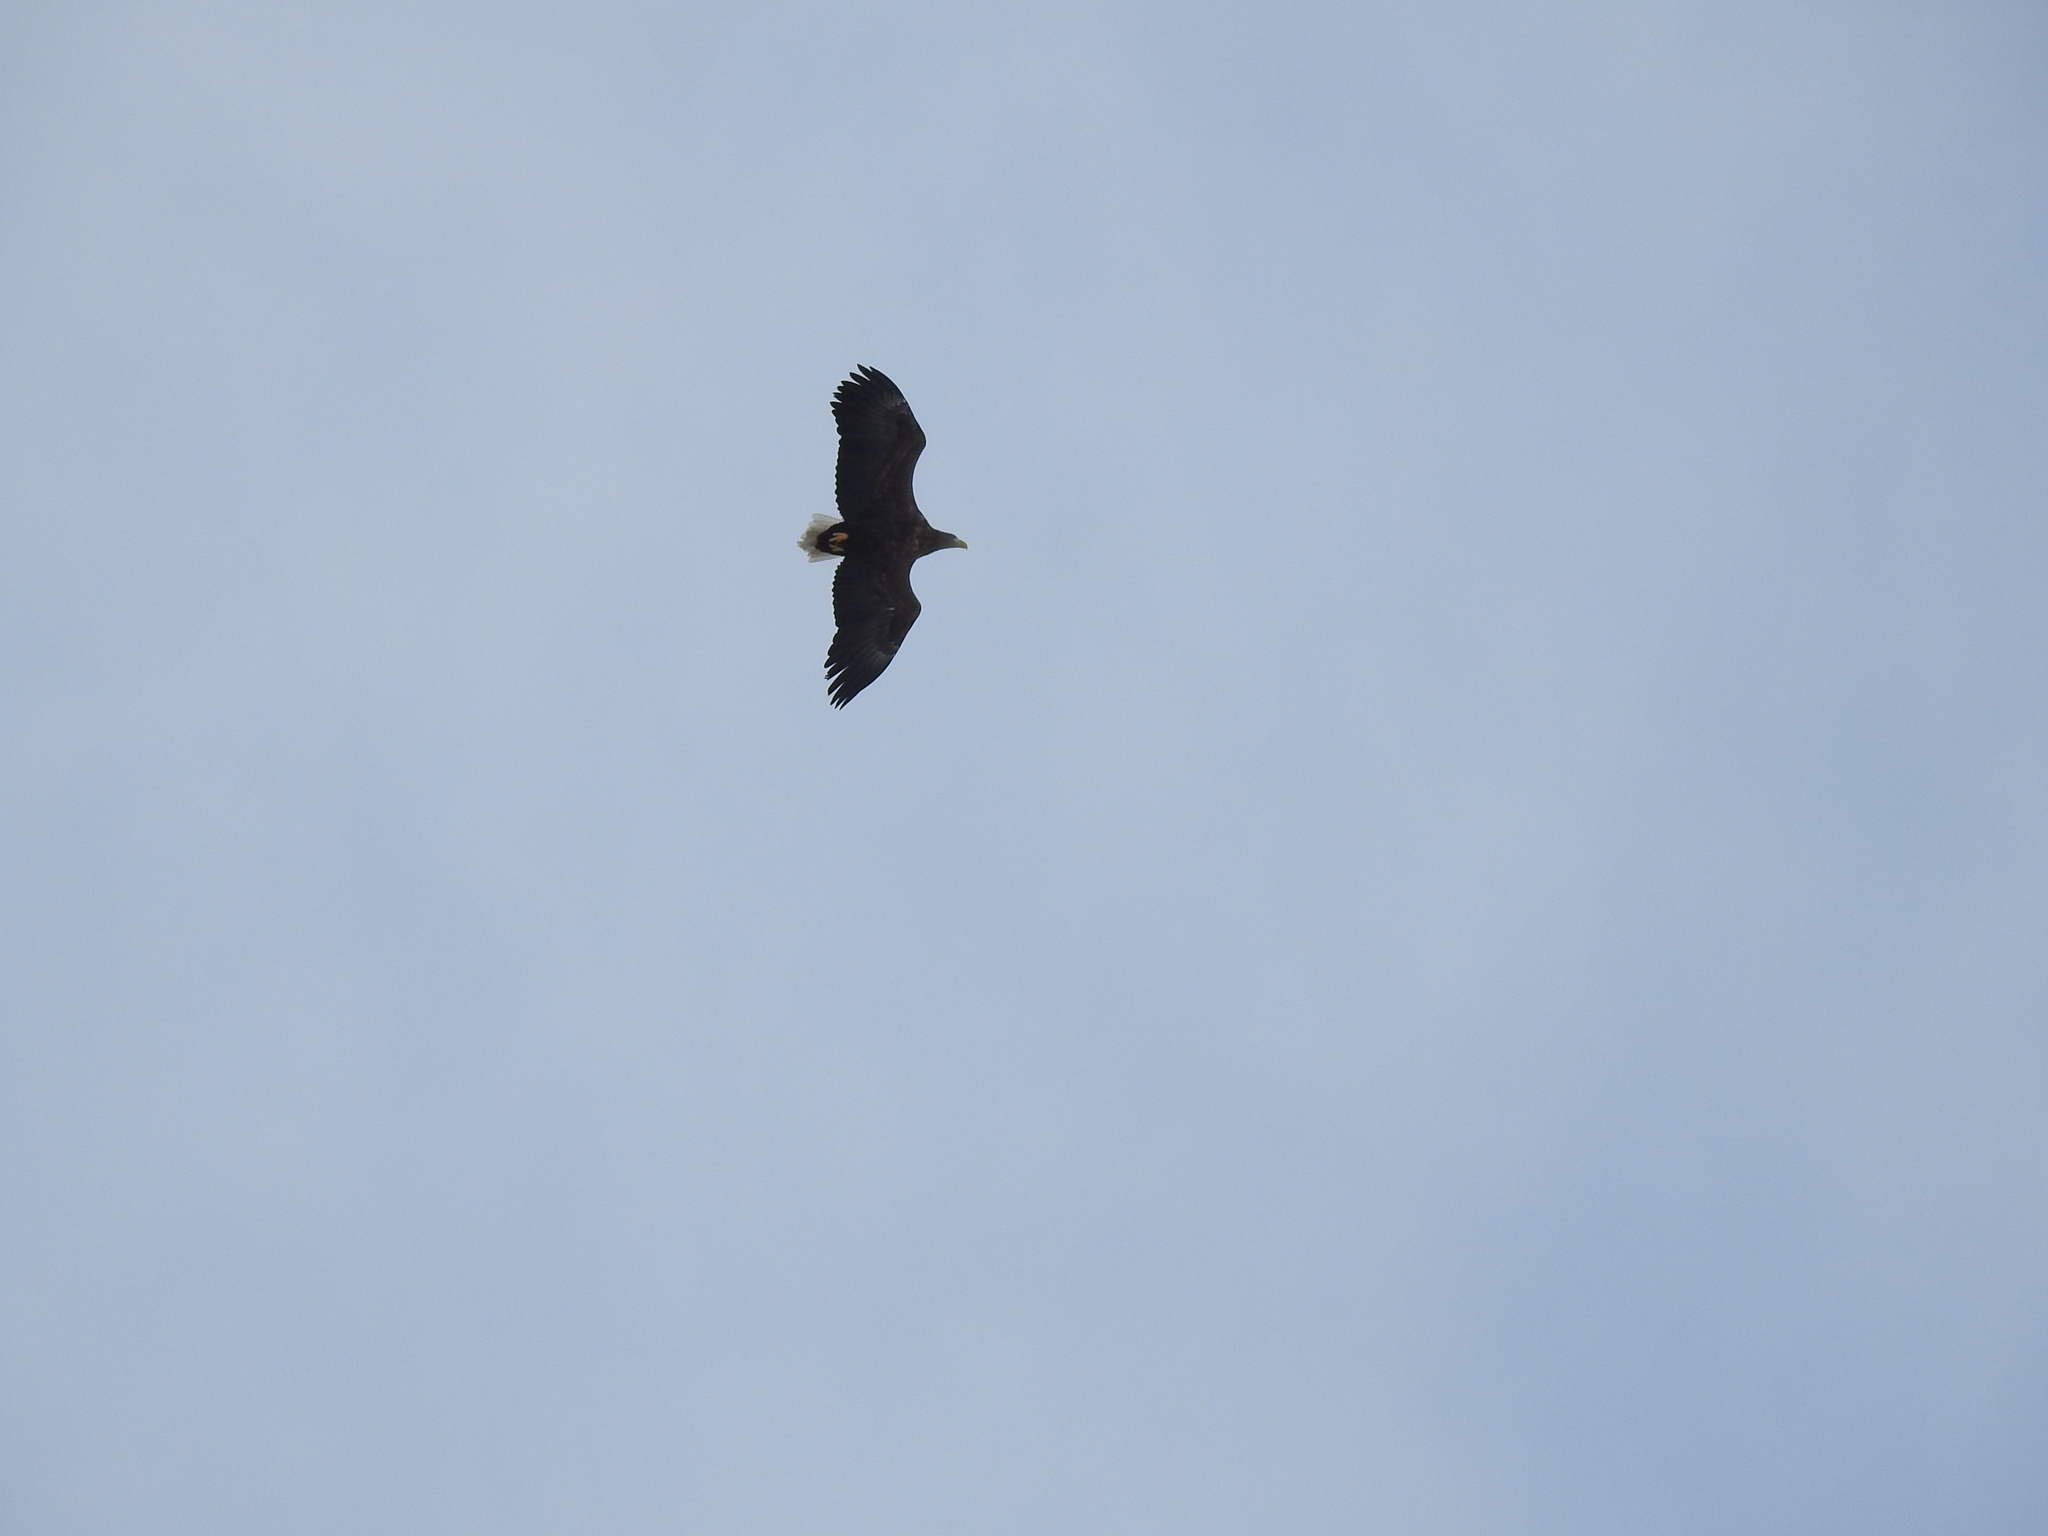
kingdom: Animalia
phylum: Chordata
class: Aves
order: Accipitriformes
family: Accipitridae
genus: Haliaeetus
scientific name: Haliaeetus albicilla
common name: White-tailed eagle
